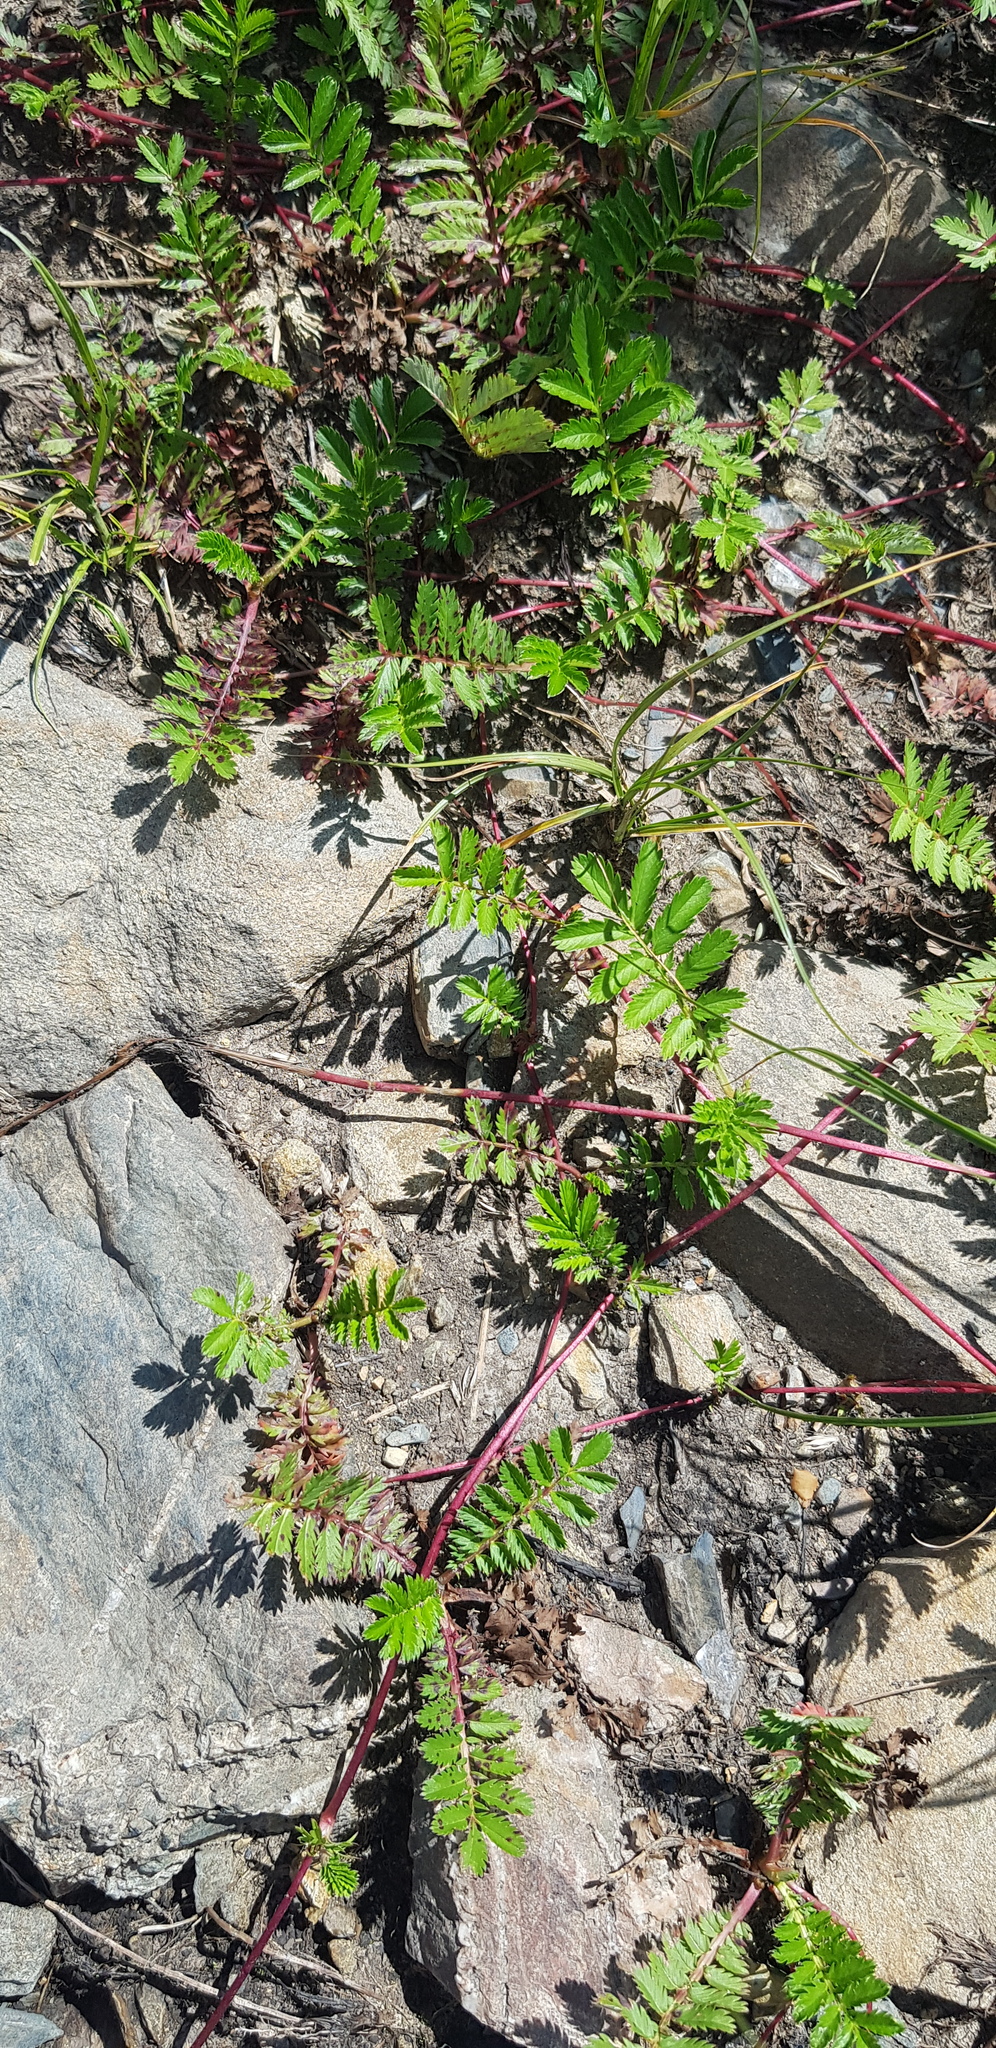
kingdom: Plantae
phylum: Tracheophyta
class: Magnoliopsida
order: Rosales
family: Rosaceae
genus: Argentina
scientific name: Argentina anserina
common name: Common silverweed
